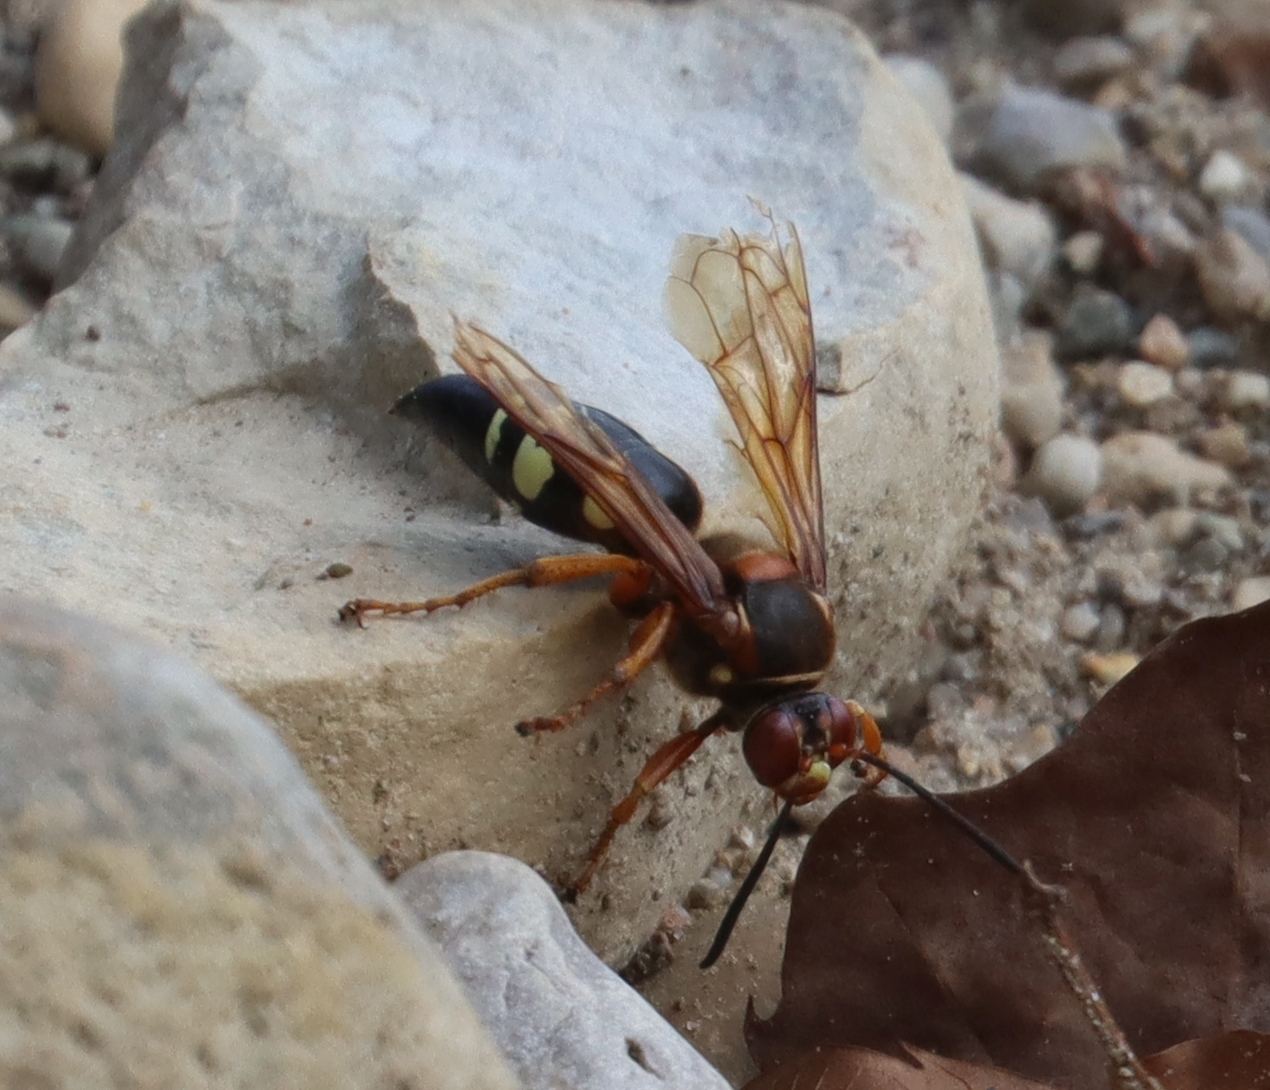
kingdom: Animalia
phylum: Arthropoda
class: Insecta
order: Hymenoptera
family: Crabronidae
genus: Sphecius
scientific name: Sphecius speciosus
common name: Cicada killer
